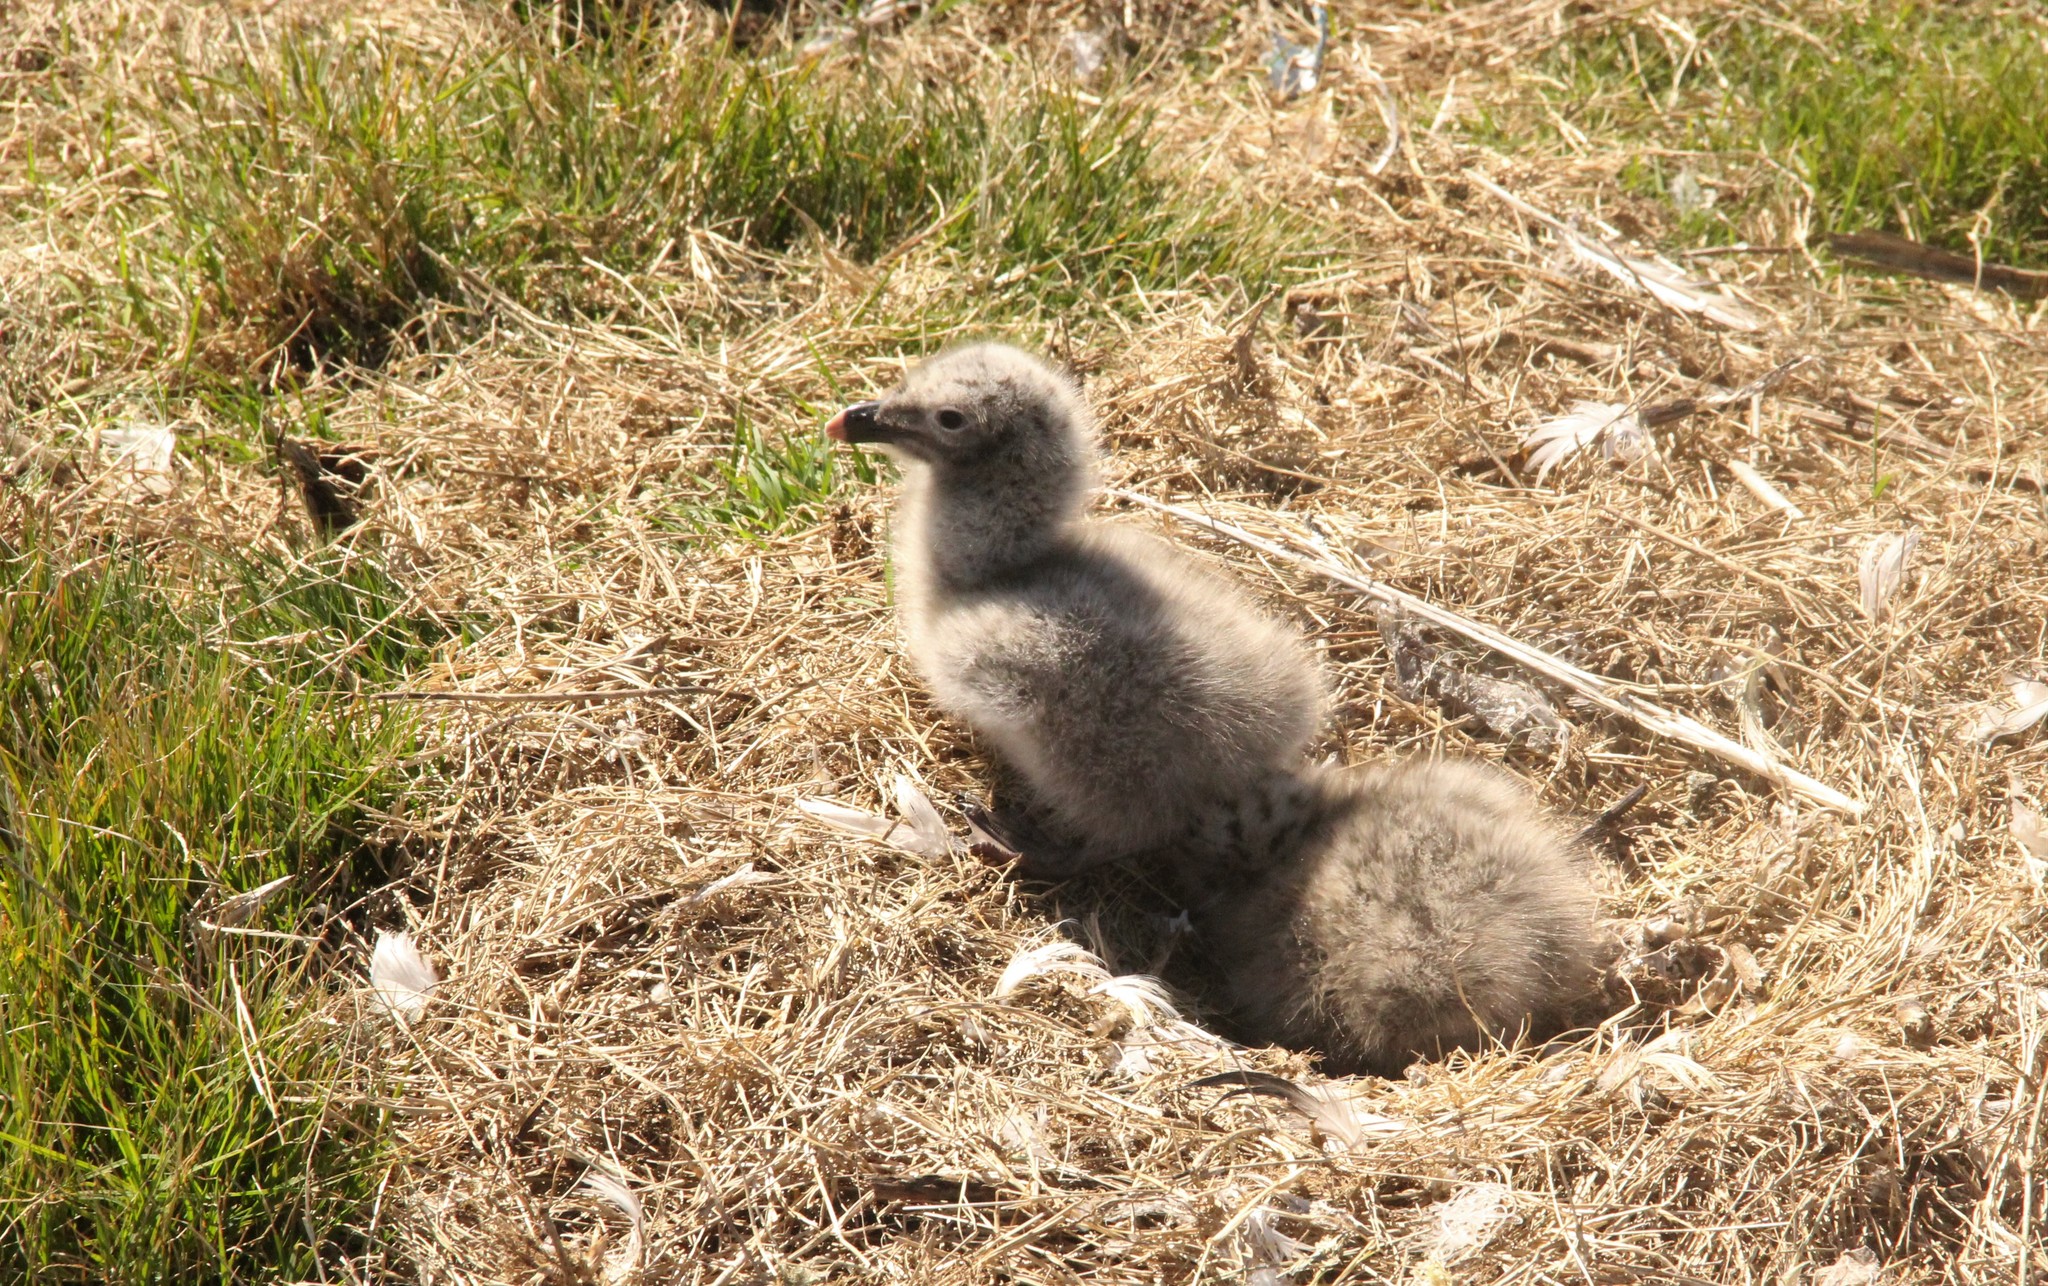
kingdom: Animalia
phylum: Chordata
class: Aves
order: Charadriiformes
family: Laridae
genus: Larus
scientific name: Larus dominicanus
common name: Kelp gull
